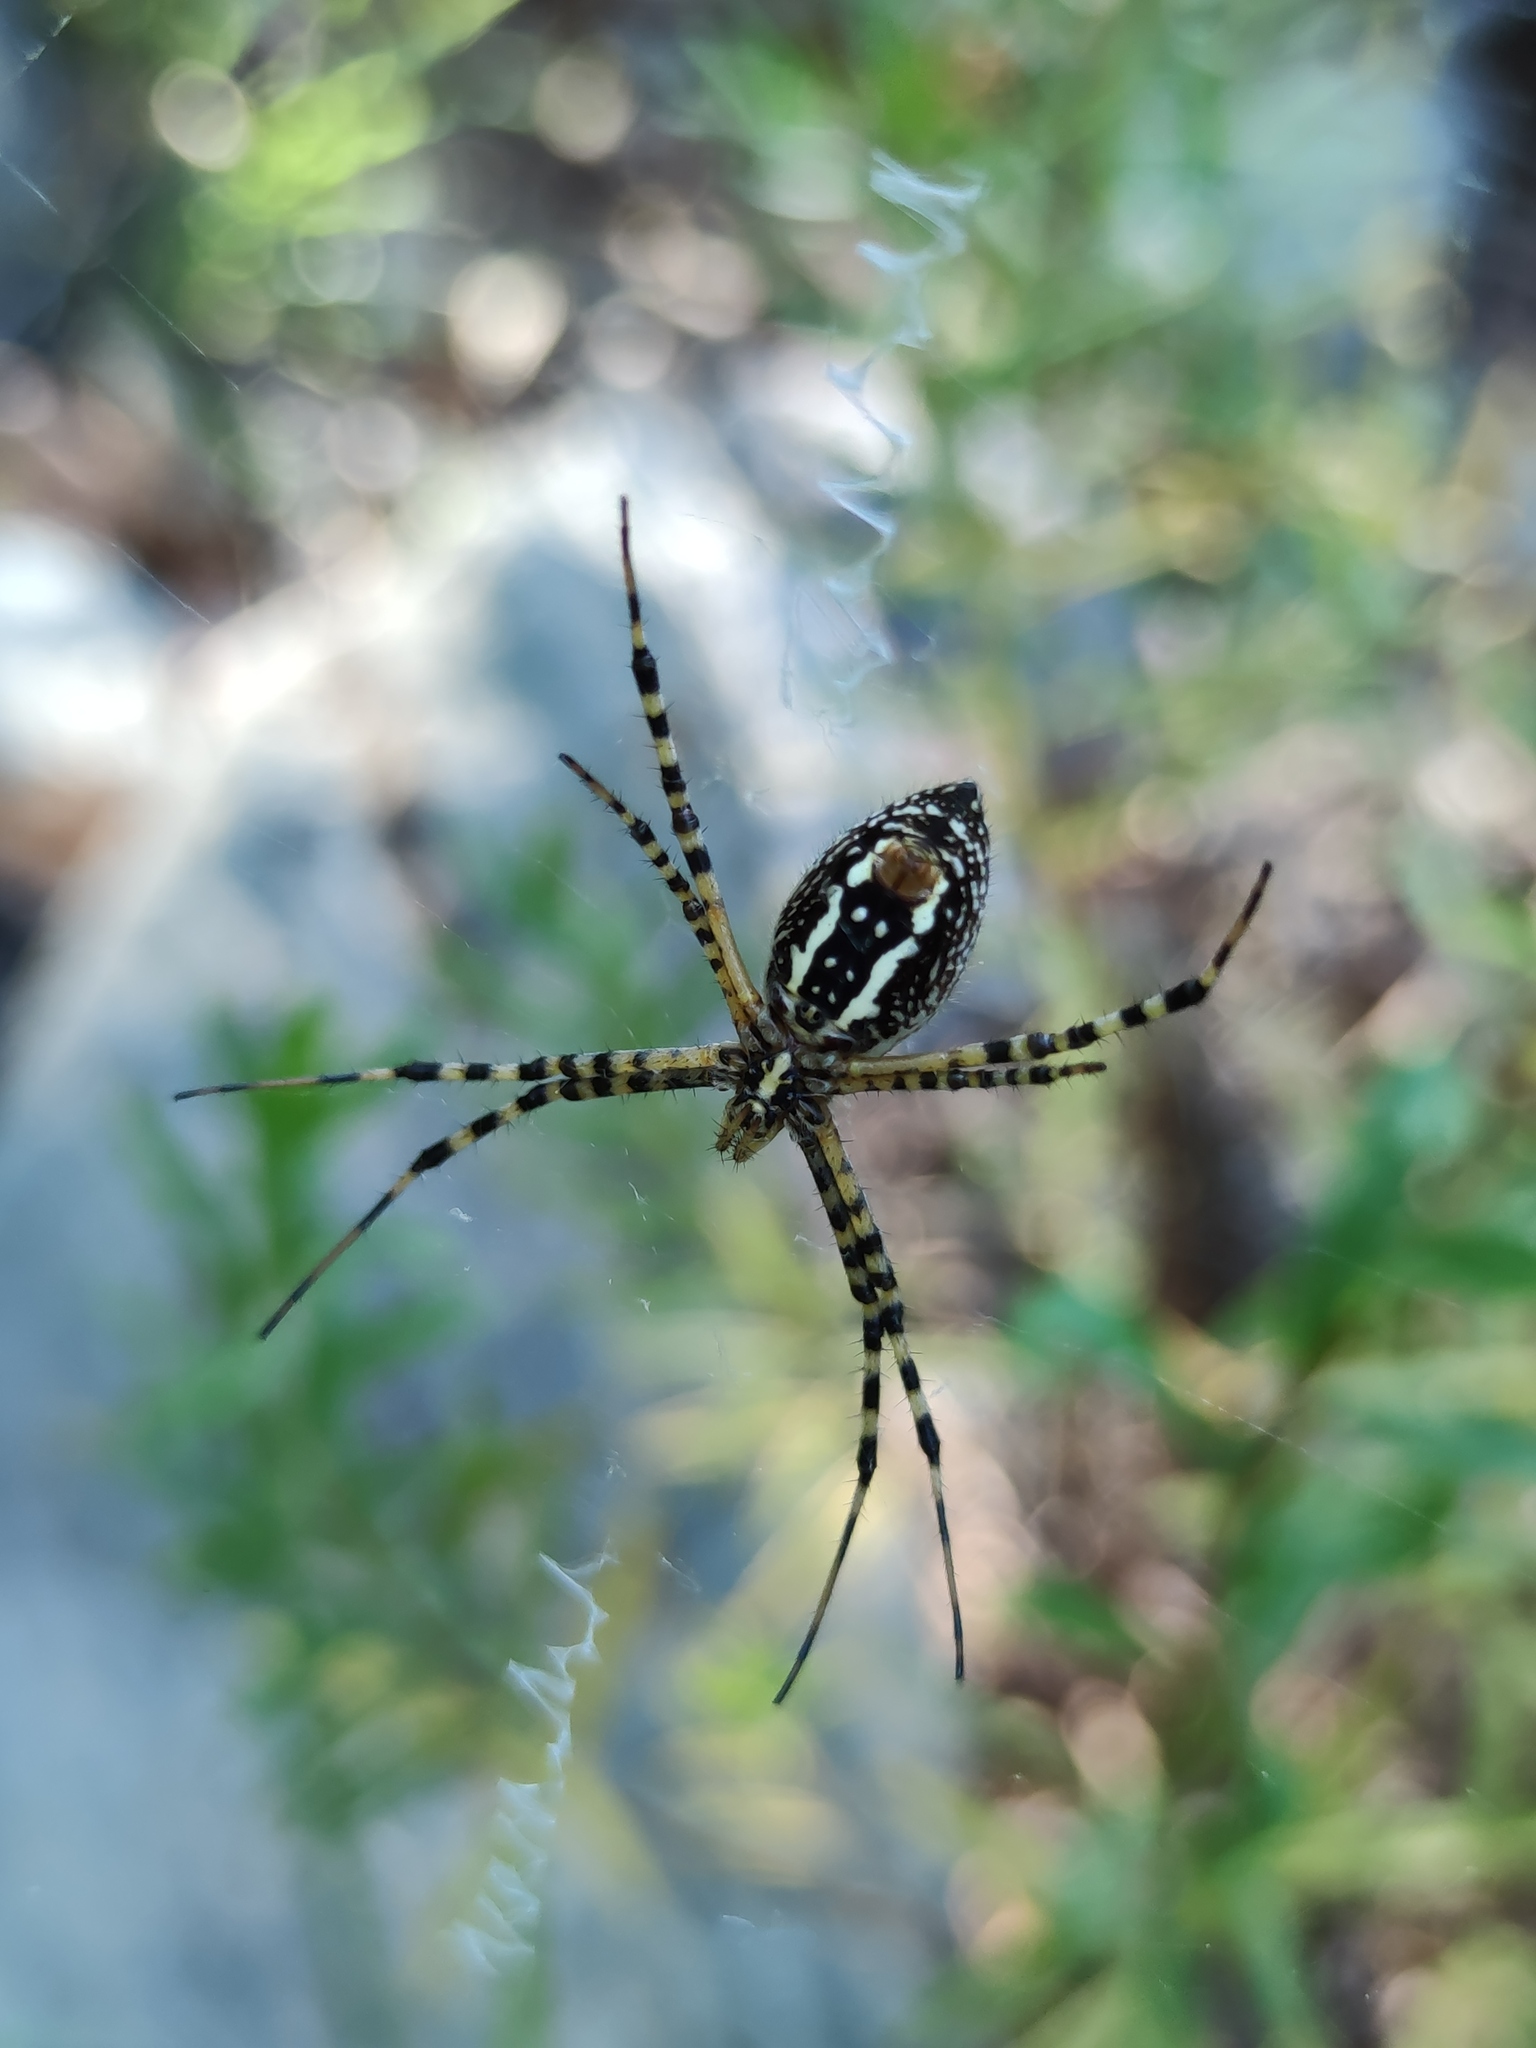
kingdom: Animalia
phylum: Arthropoda
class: Arachnida
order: Araneae
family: Araneidae
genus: Argiope
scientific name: Argiope trifasciata
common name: Banded garden spider
